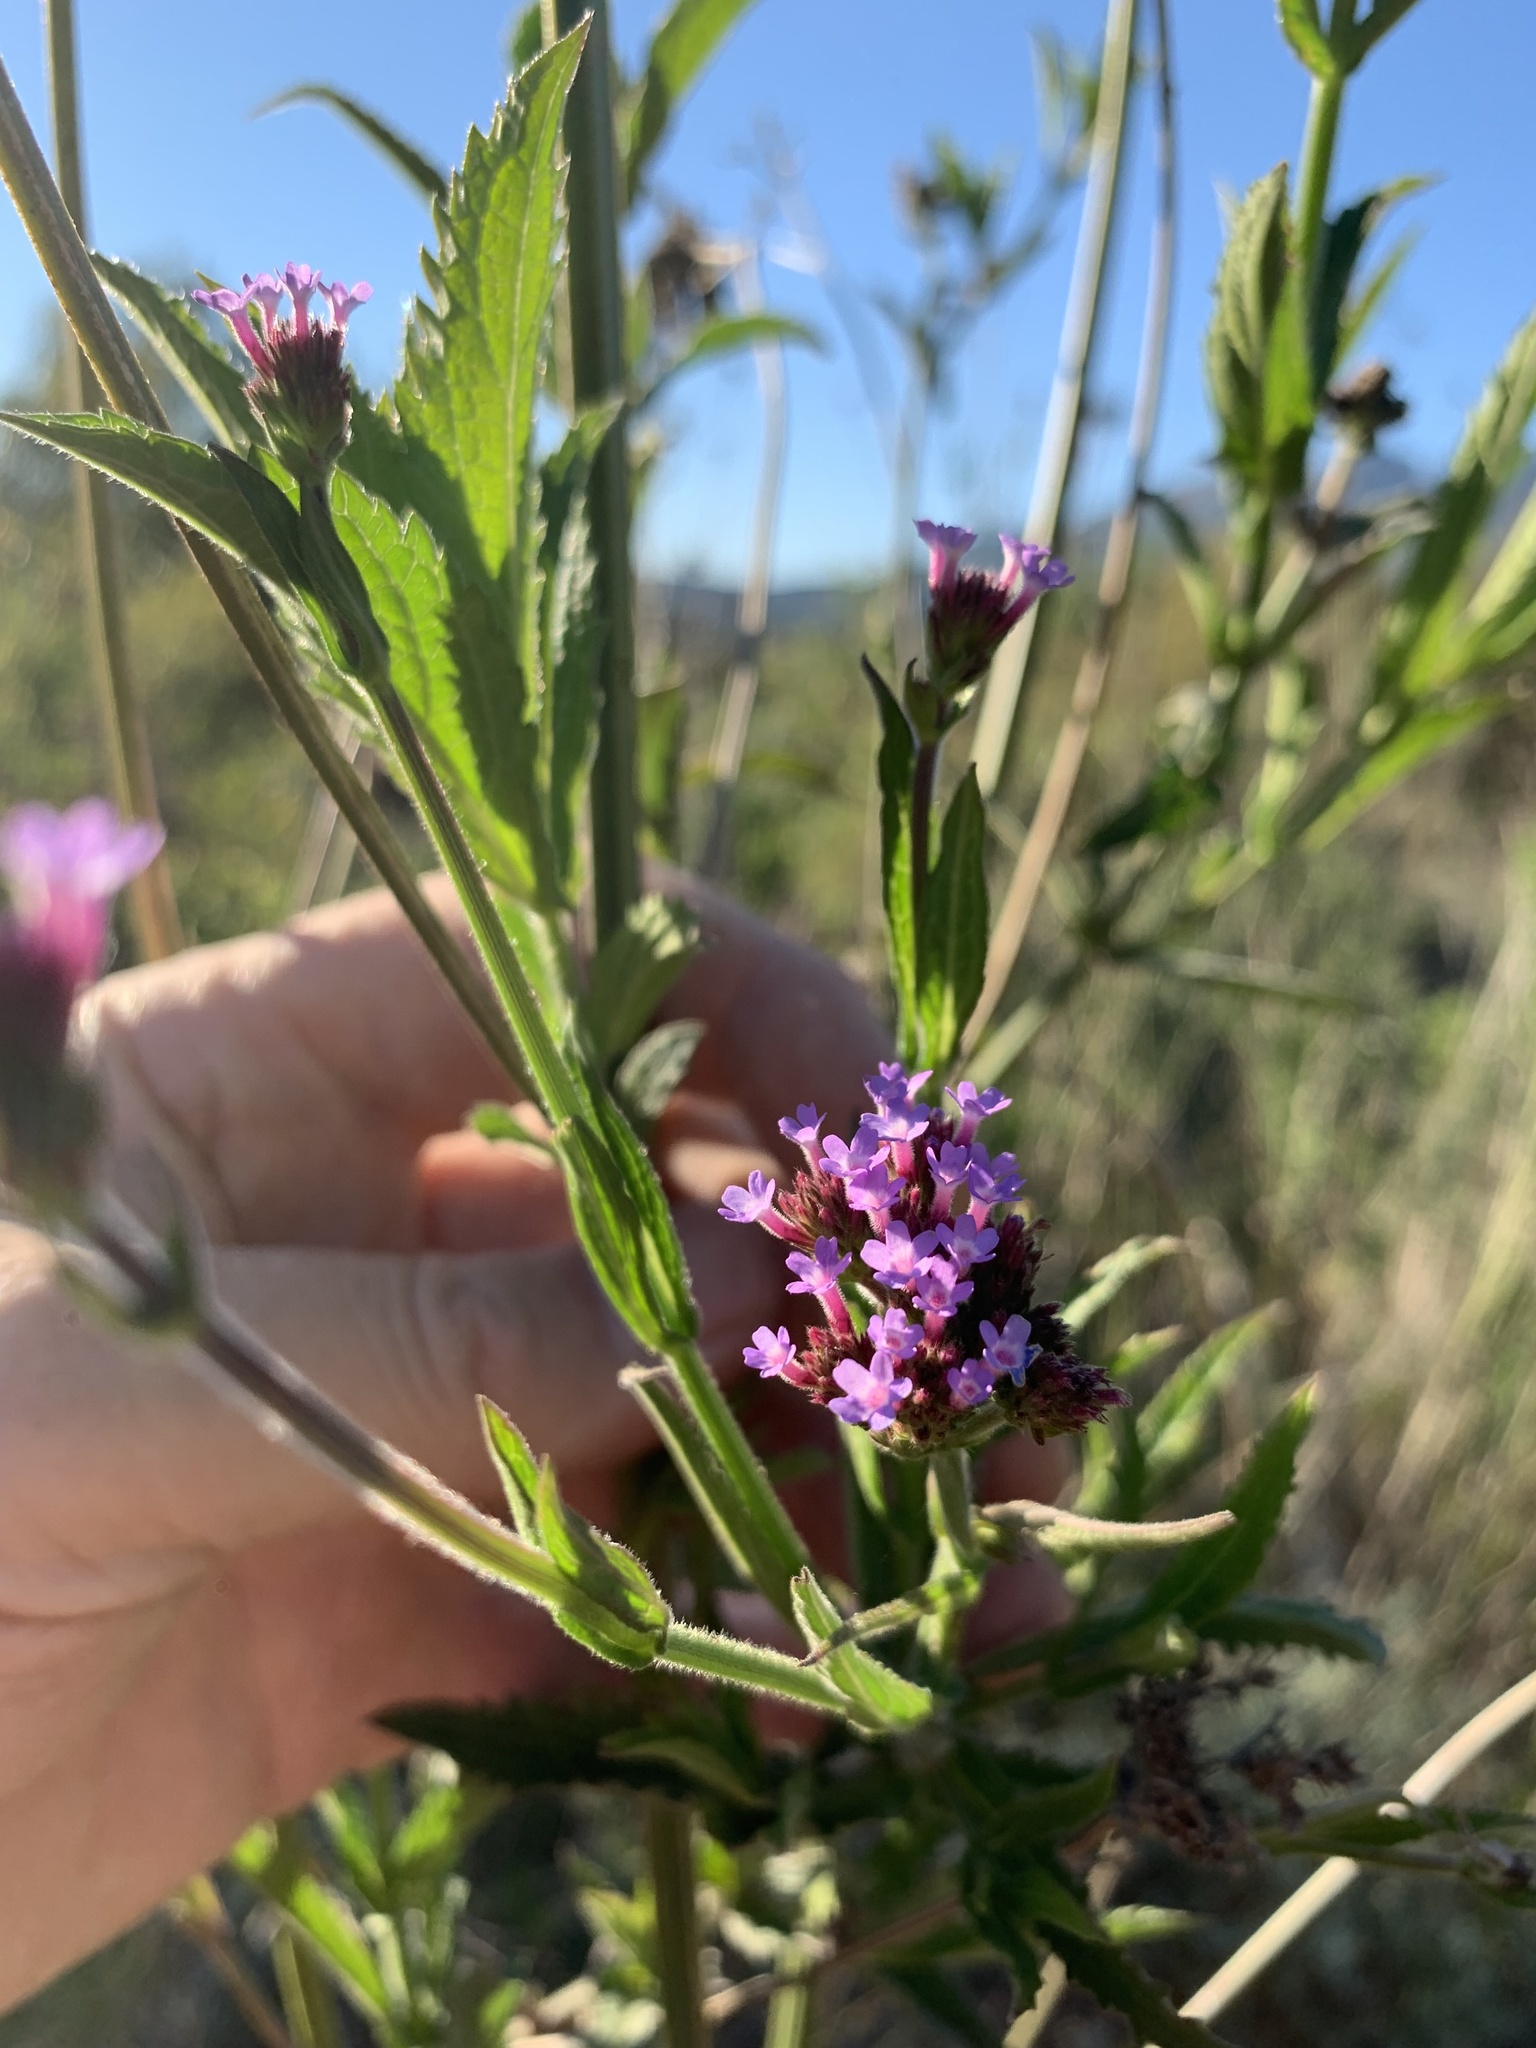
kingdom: Plantae
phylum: Tracheophyta
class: Magnoliopsida
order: Lamiales
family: Verbenaceae
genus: Verbena
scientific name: Verbena bonariensis
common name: Purpletop vervain
